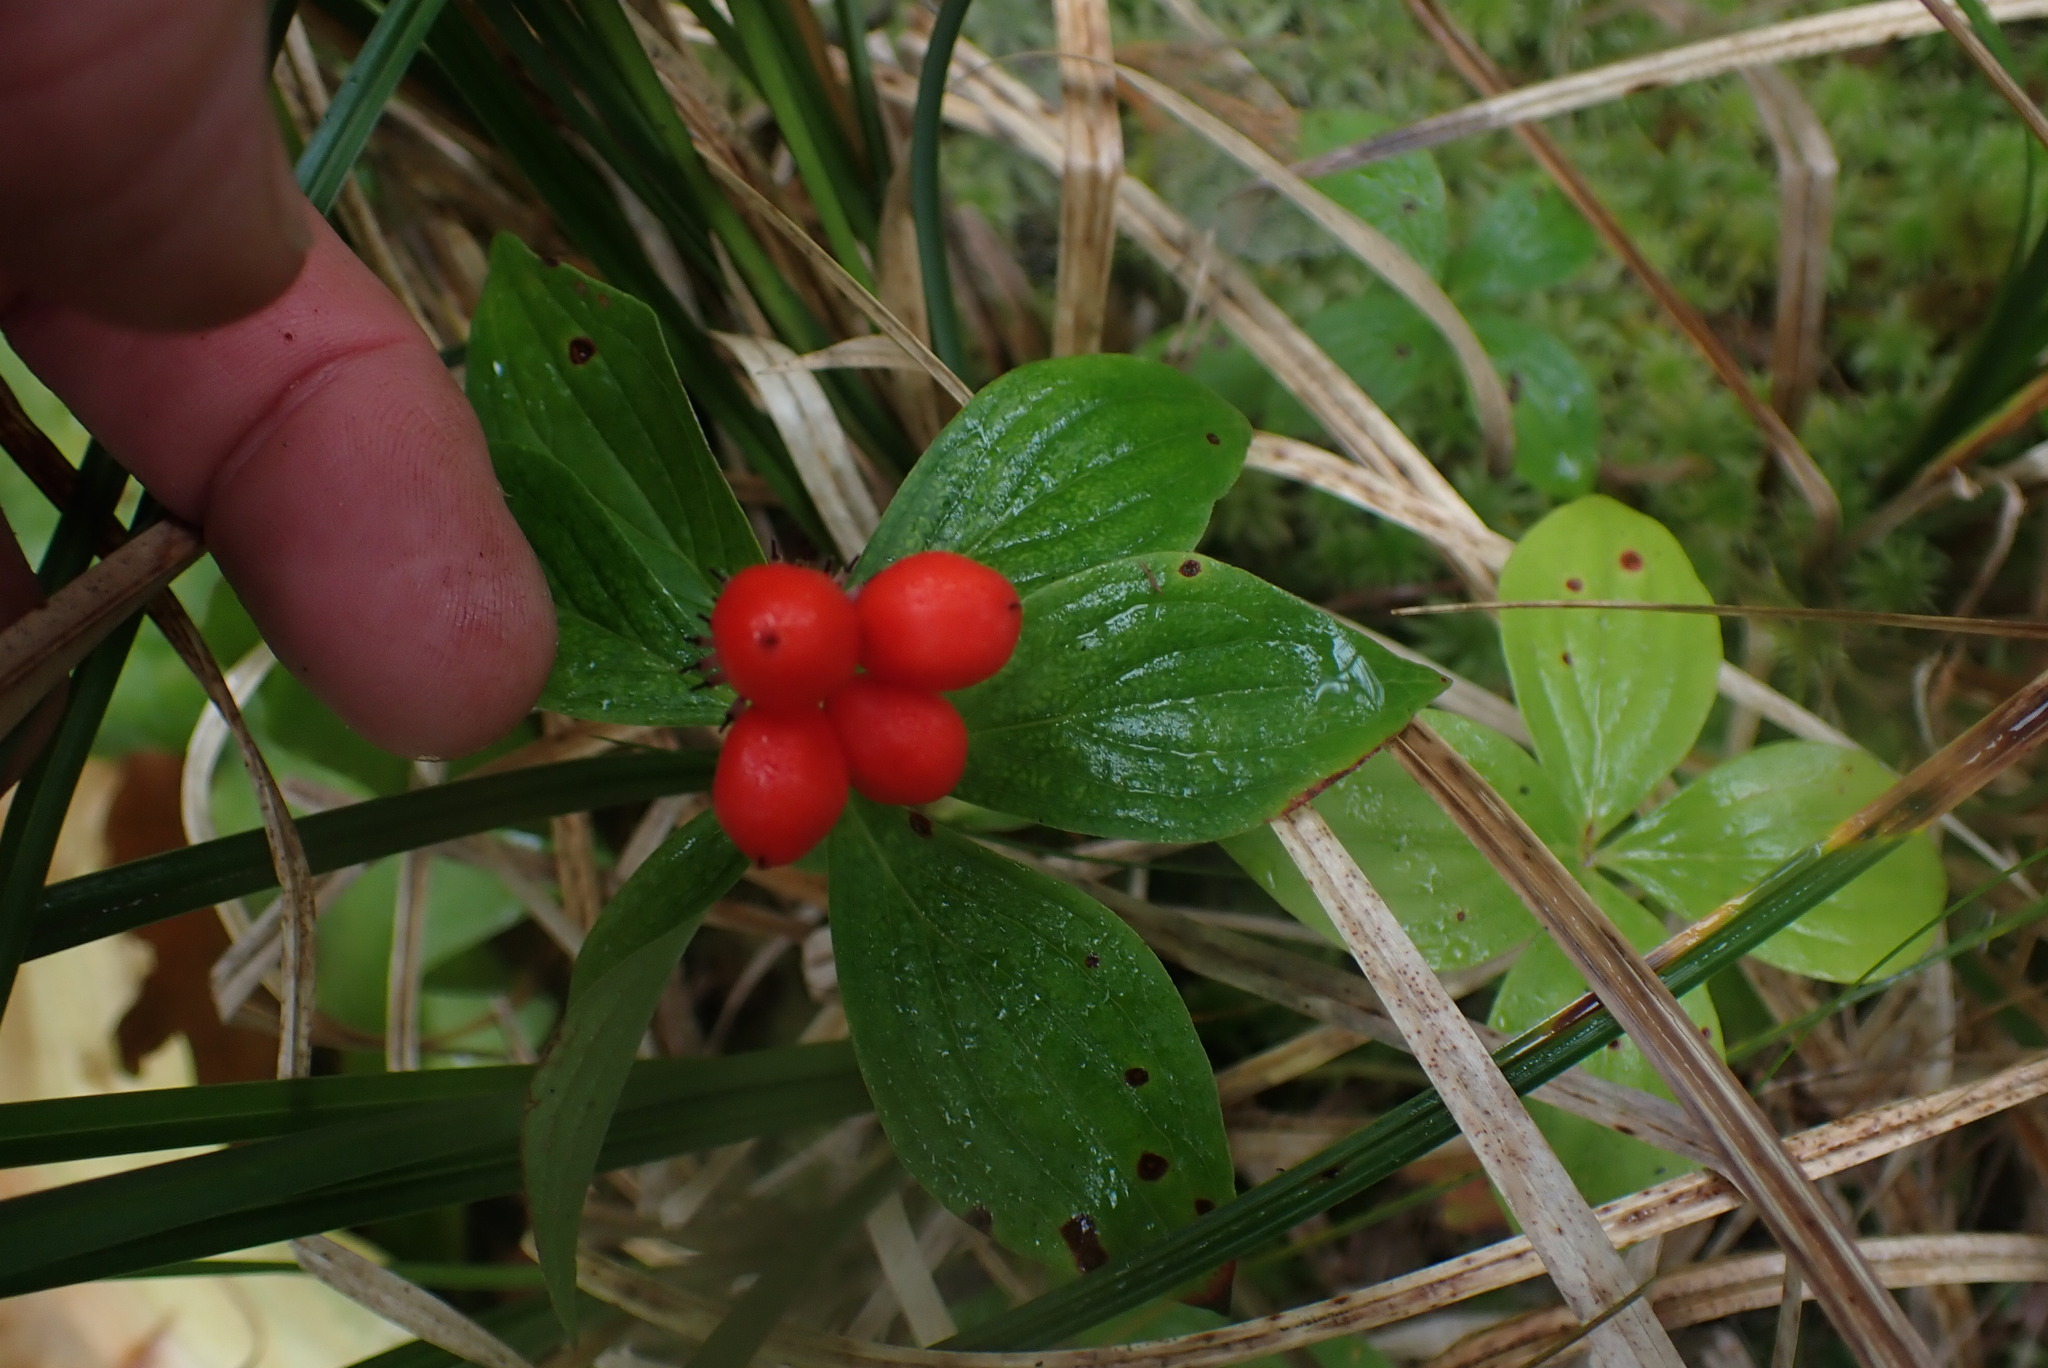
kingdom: Plantae
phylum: Tracheophyta
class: Magnoliopsida
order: Cornales
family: Cornaceae
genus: Cornus
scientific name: Cornus unalaschkensis
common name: Alaska bunchberry
